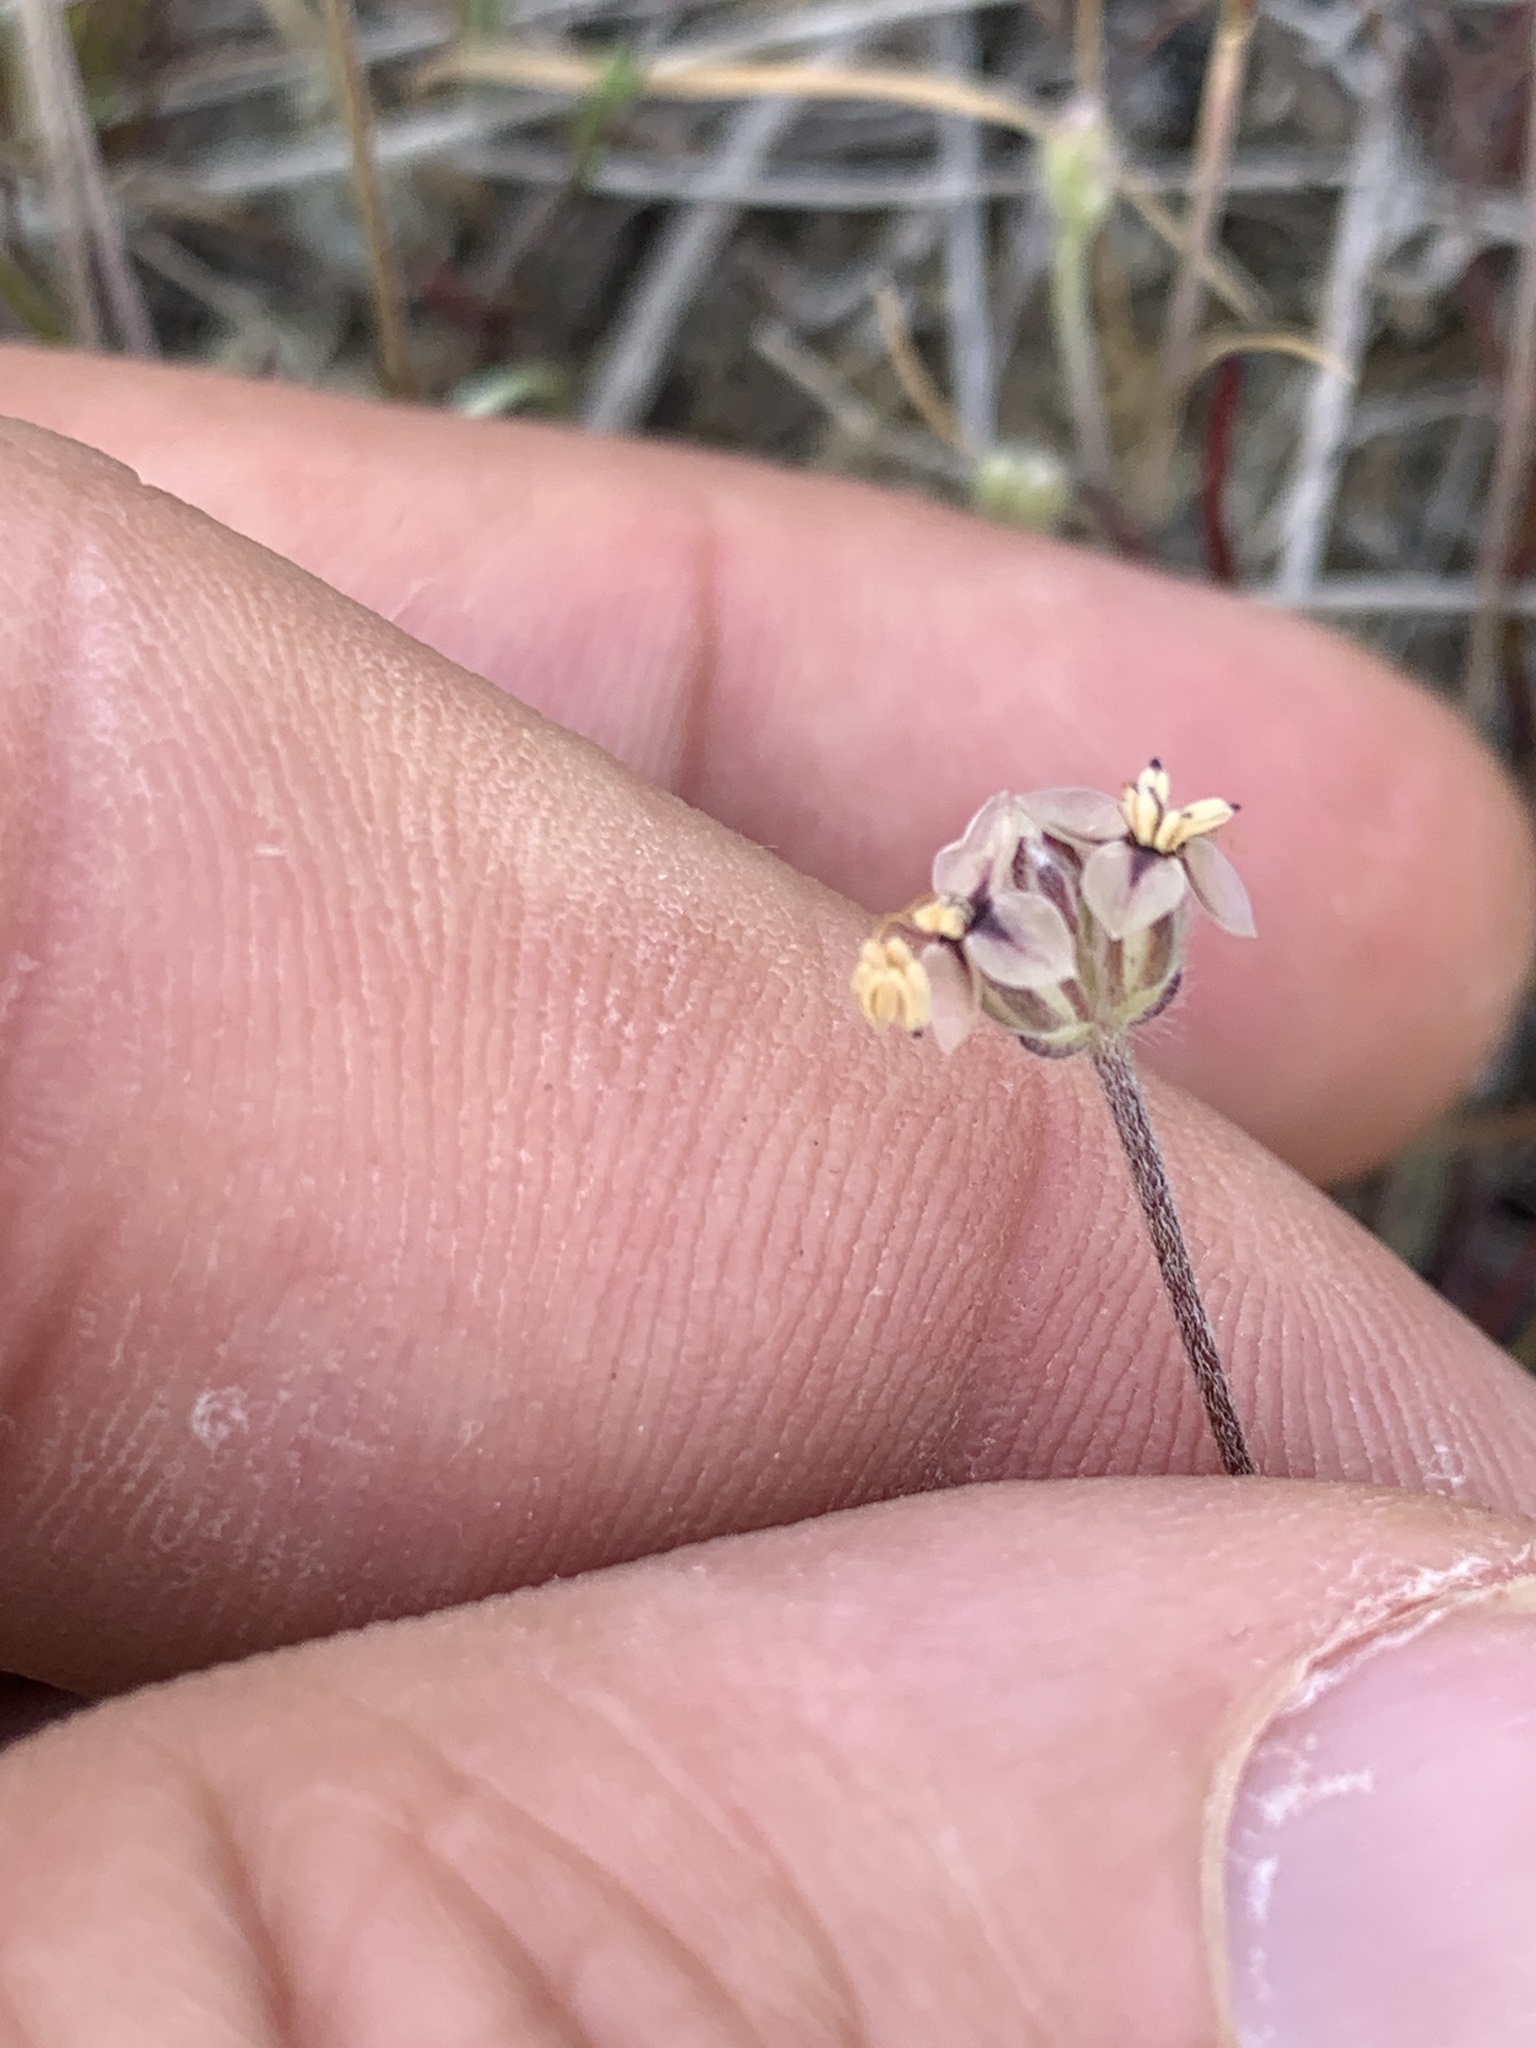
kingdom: Plantae
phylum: Tracheophyta
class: Magnoliopsida
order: Lamiales
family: Plantaginaceae
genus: Plantago
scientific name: Plantago erecta
